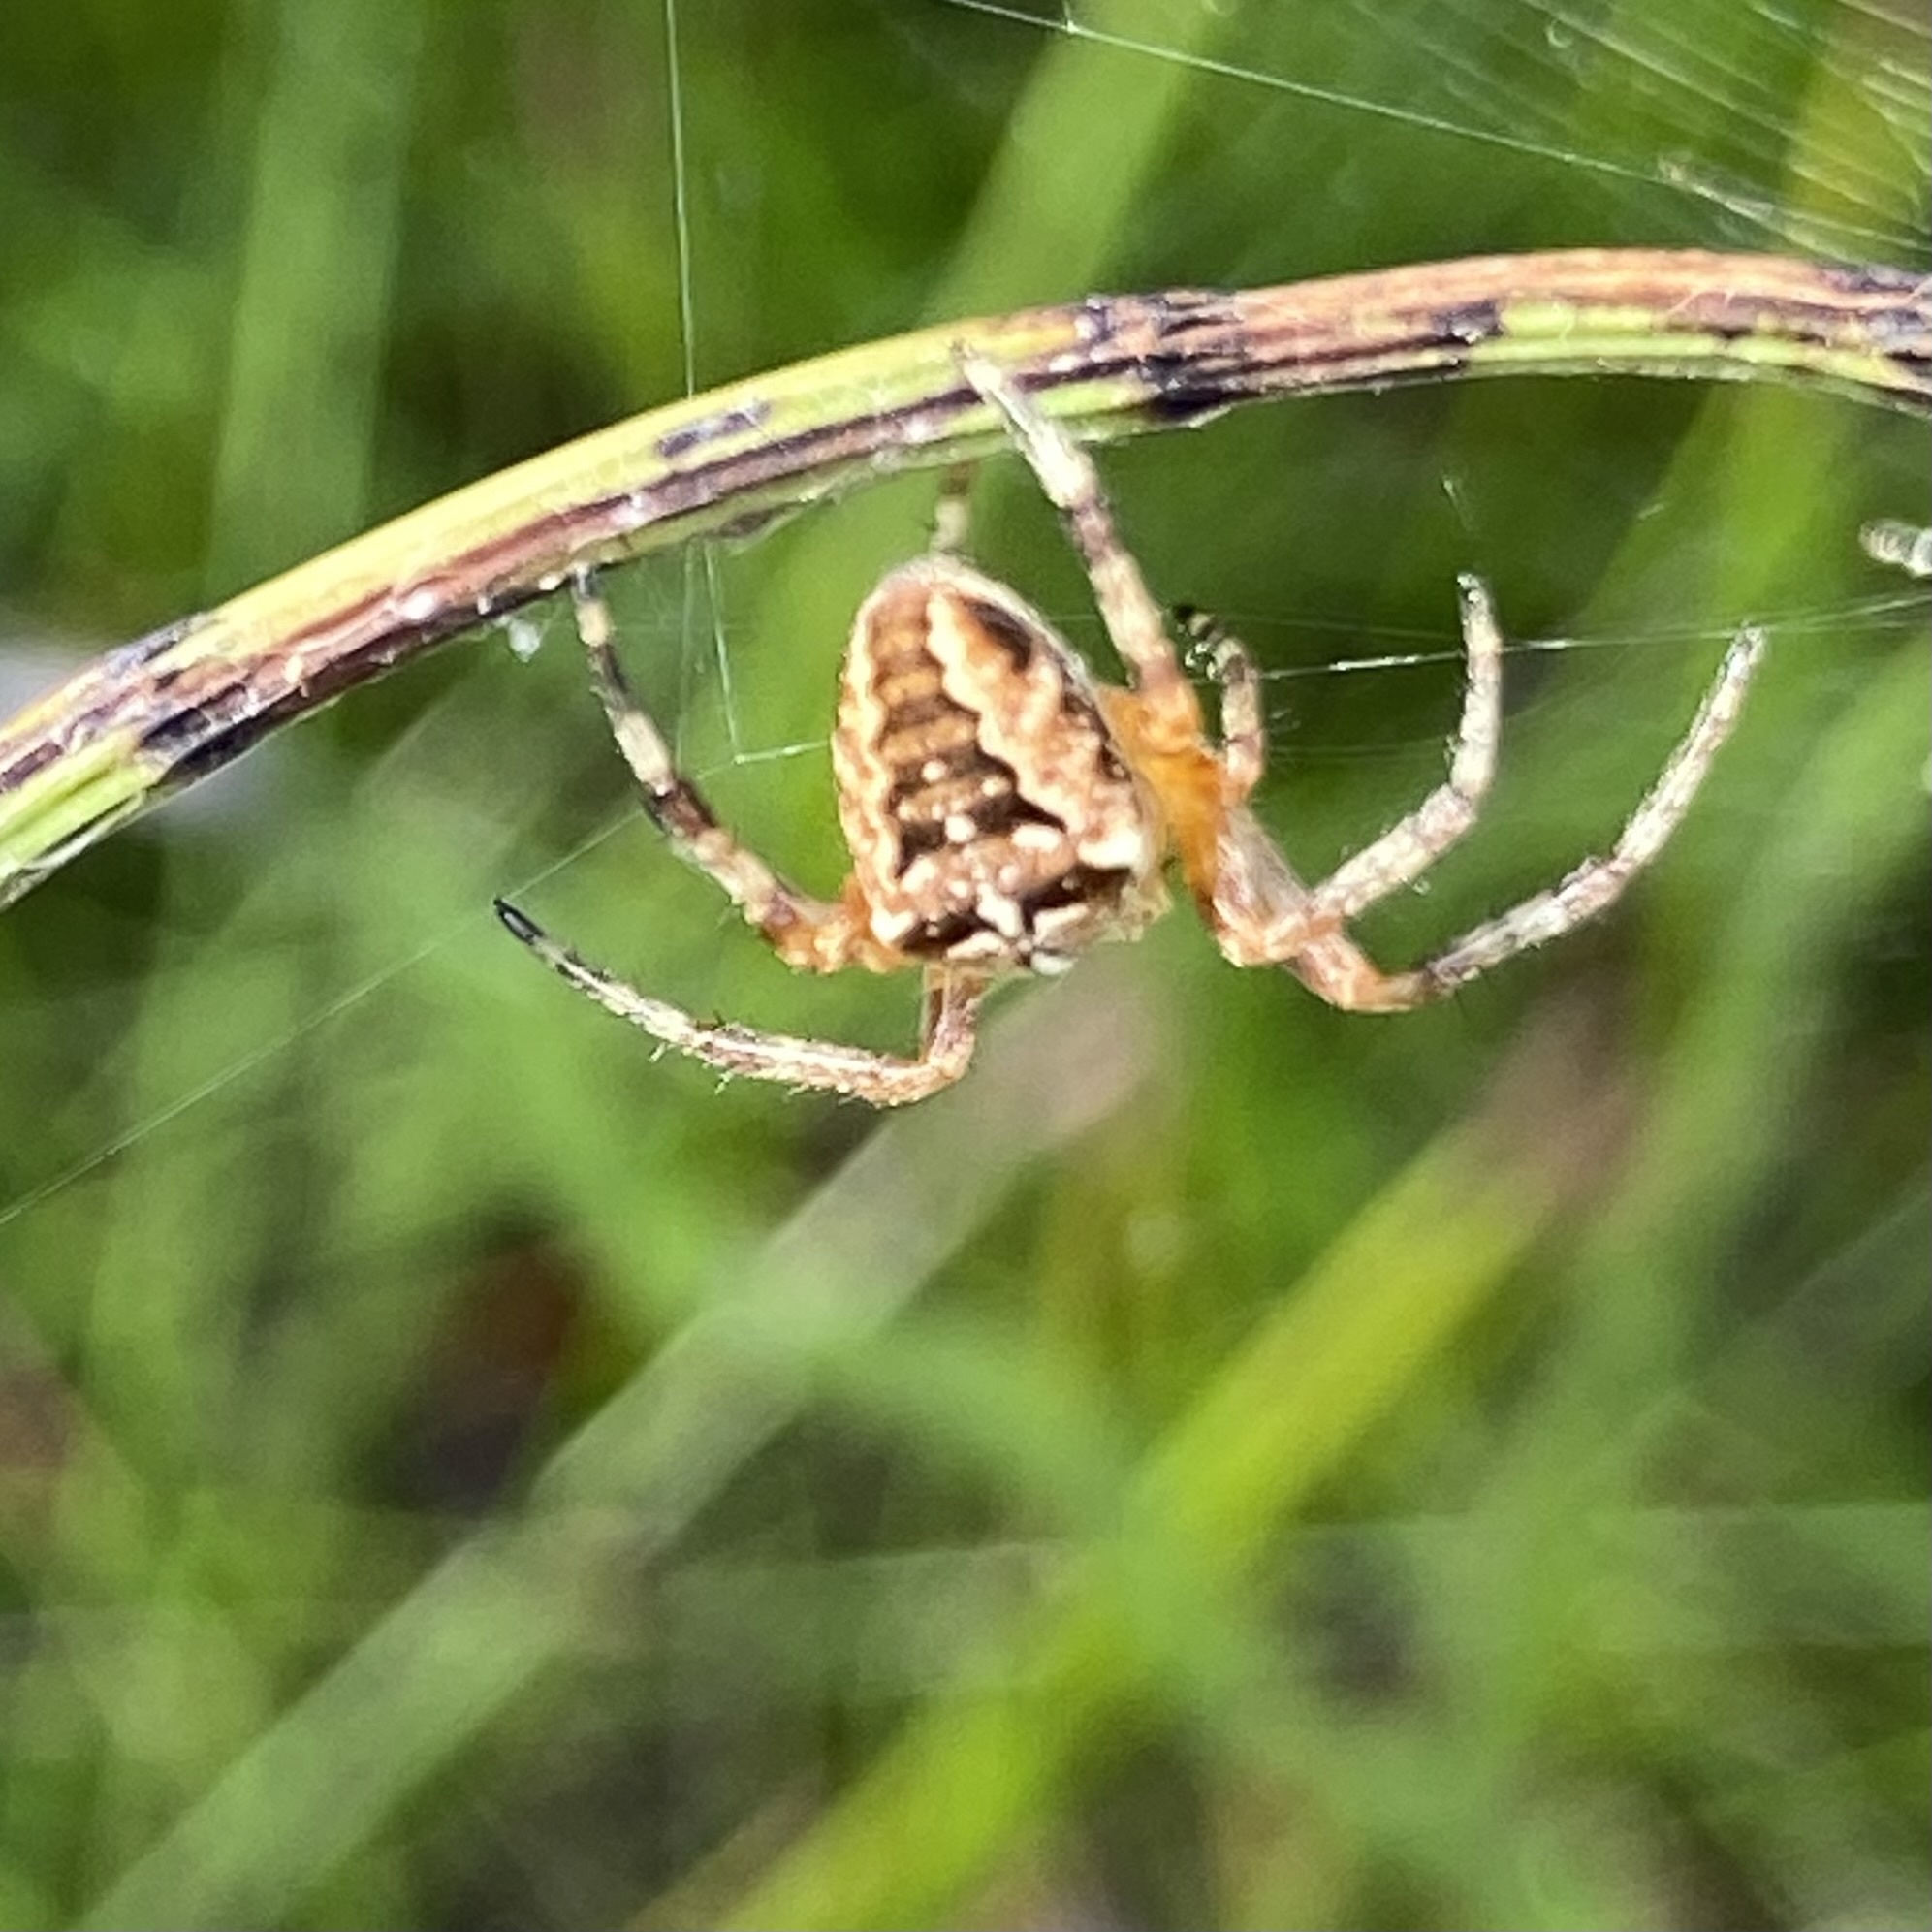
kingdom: Animalia
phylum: Arthropoda
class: Arachnida
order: Araneae
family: Araneidae
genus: Araneus
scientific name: Araneus diadematus
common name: Cross orbweaver
